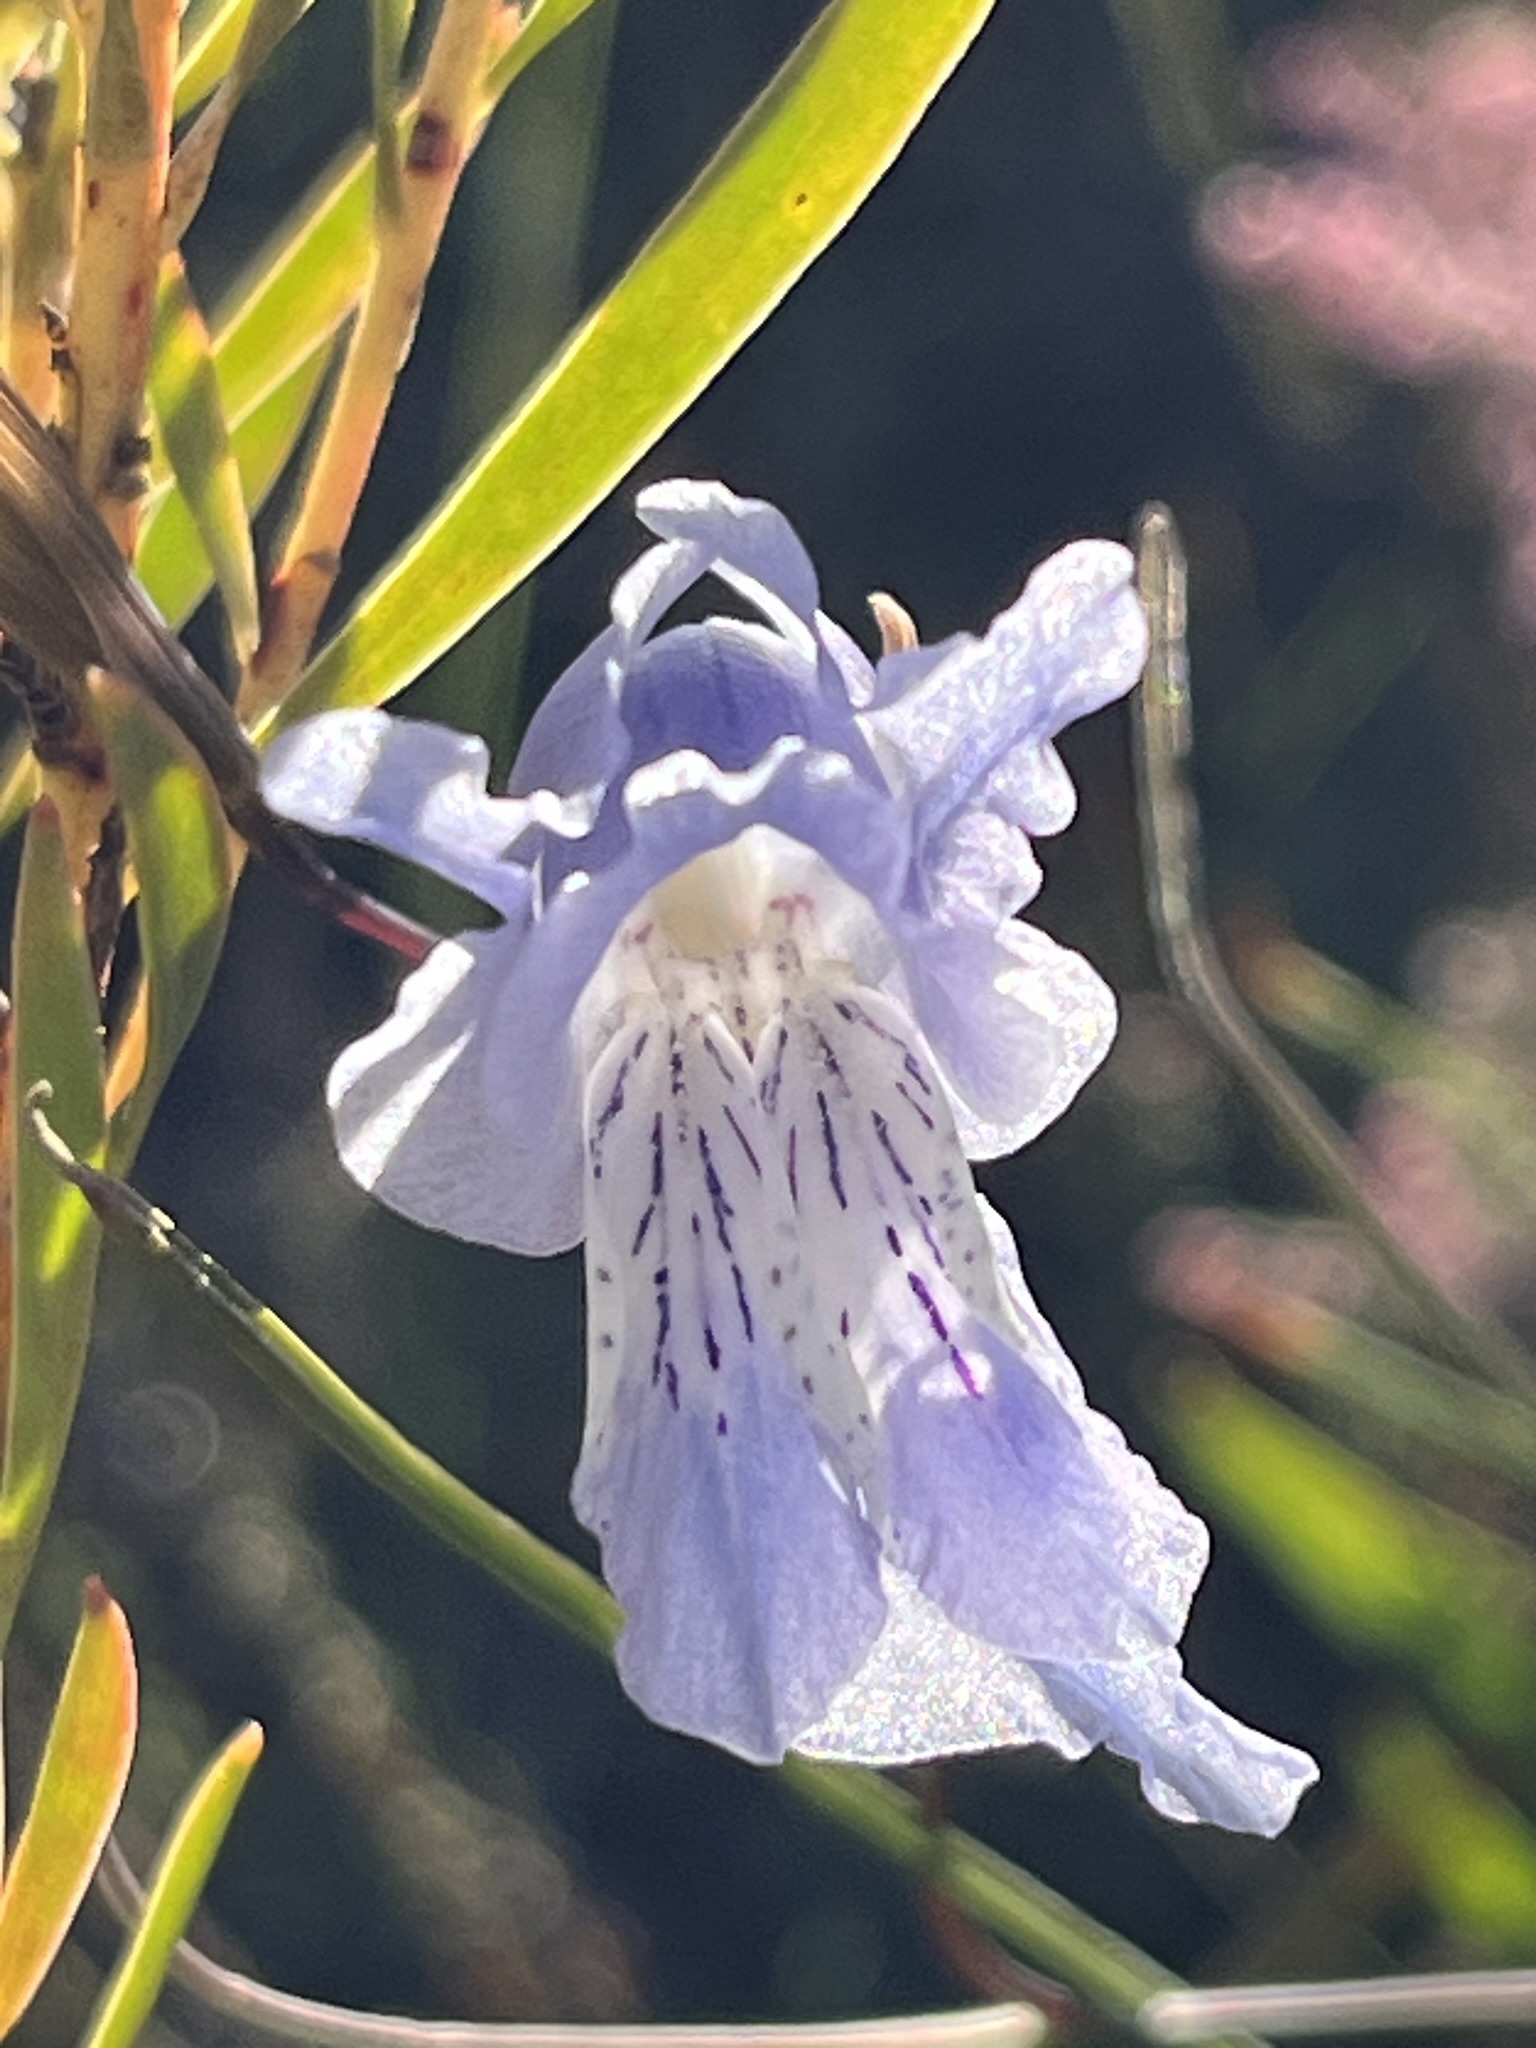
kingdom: Plantae
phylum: Tracheophyta
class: Liliopsida
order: Asparagales
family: Iridaceae
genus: Gladiolus
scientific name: Gladiolus gracilis
